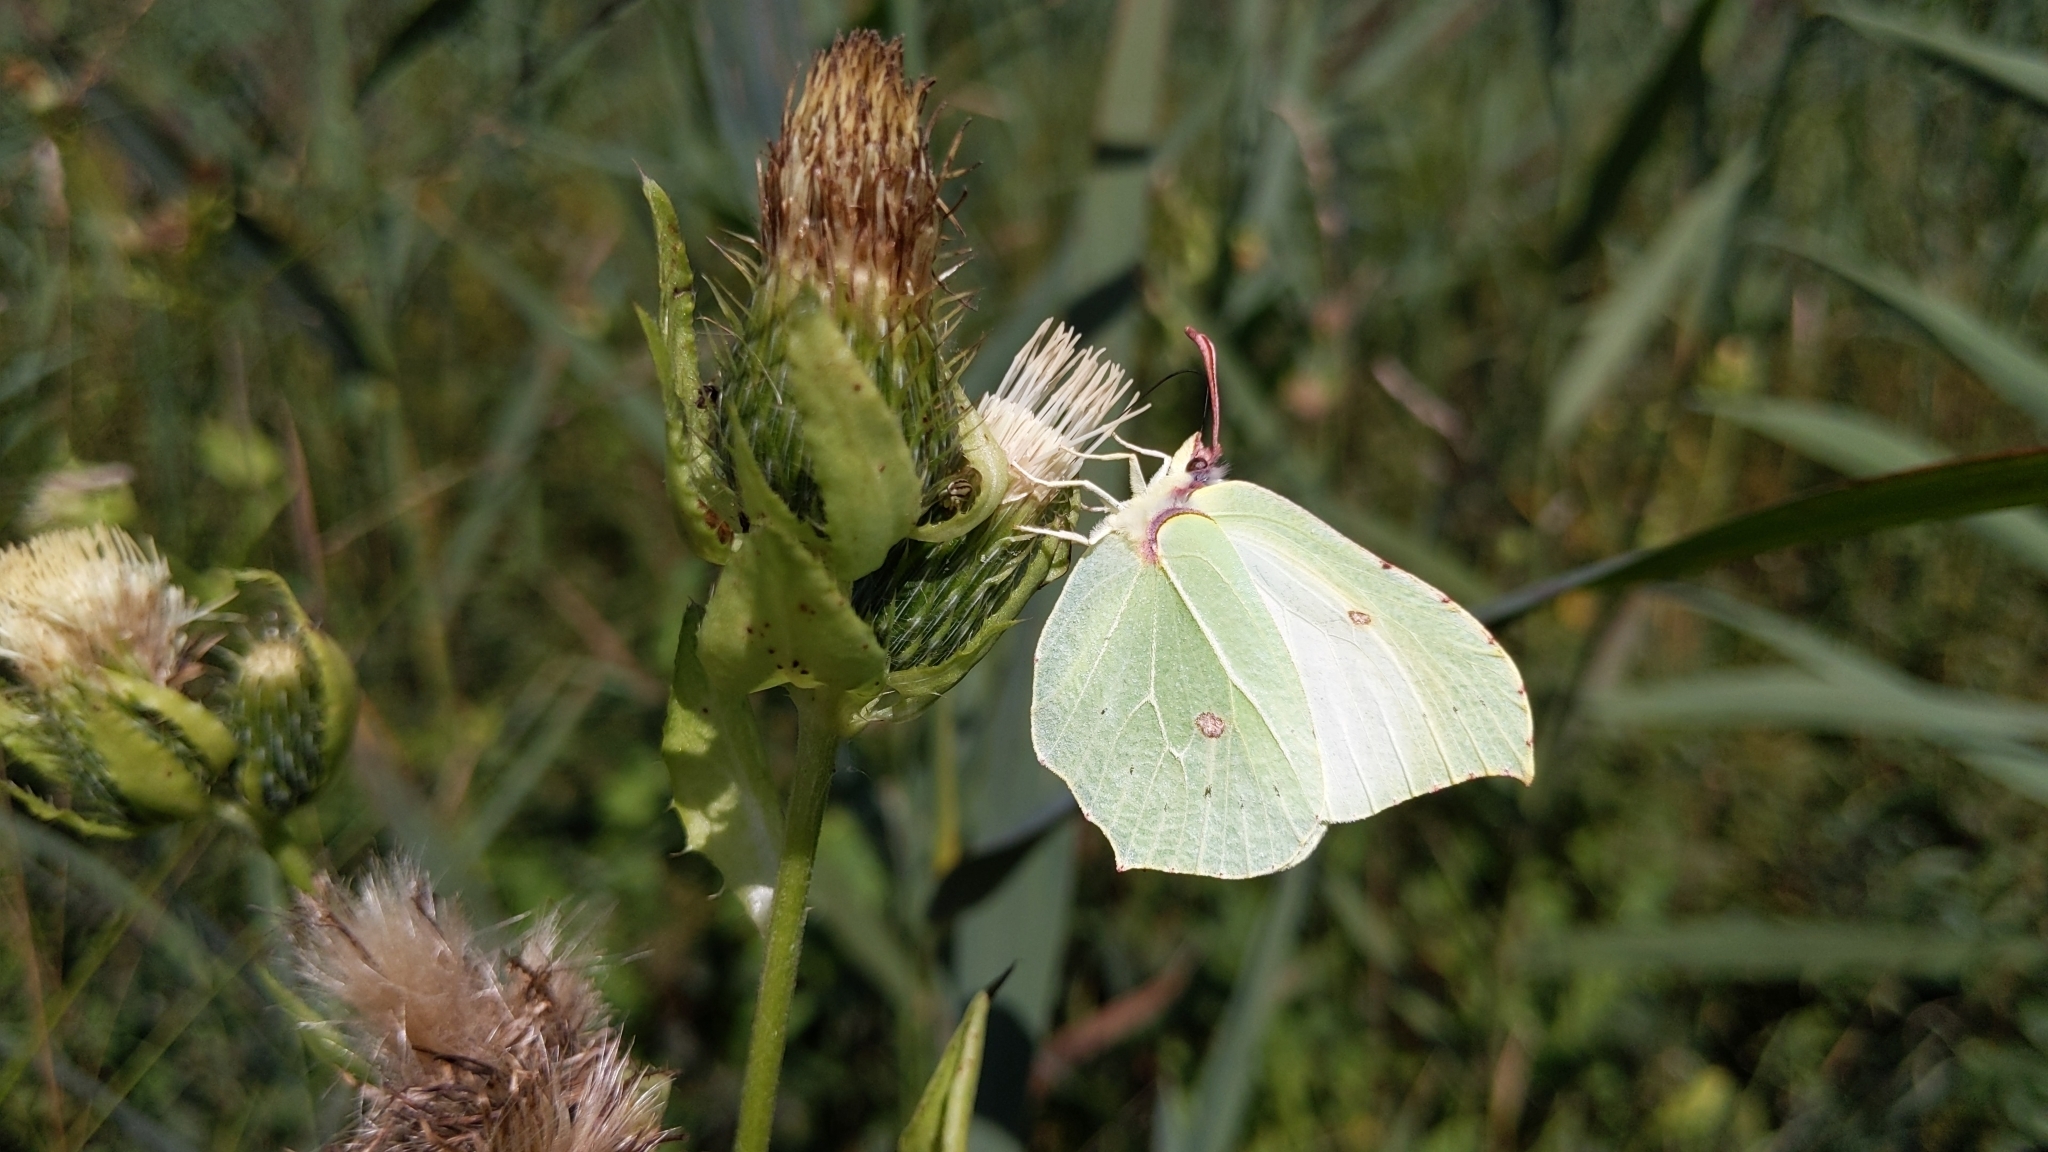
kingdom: Animalia
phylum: Arthropoda
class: Insecta
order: Lepidoptera
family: Pieridae
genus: Gonepteryx
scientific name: Gonepteryx rhamni
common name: Brimstone
